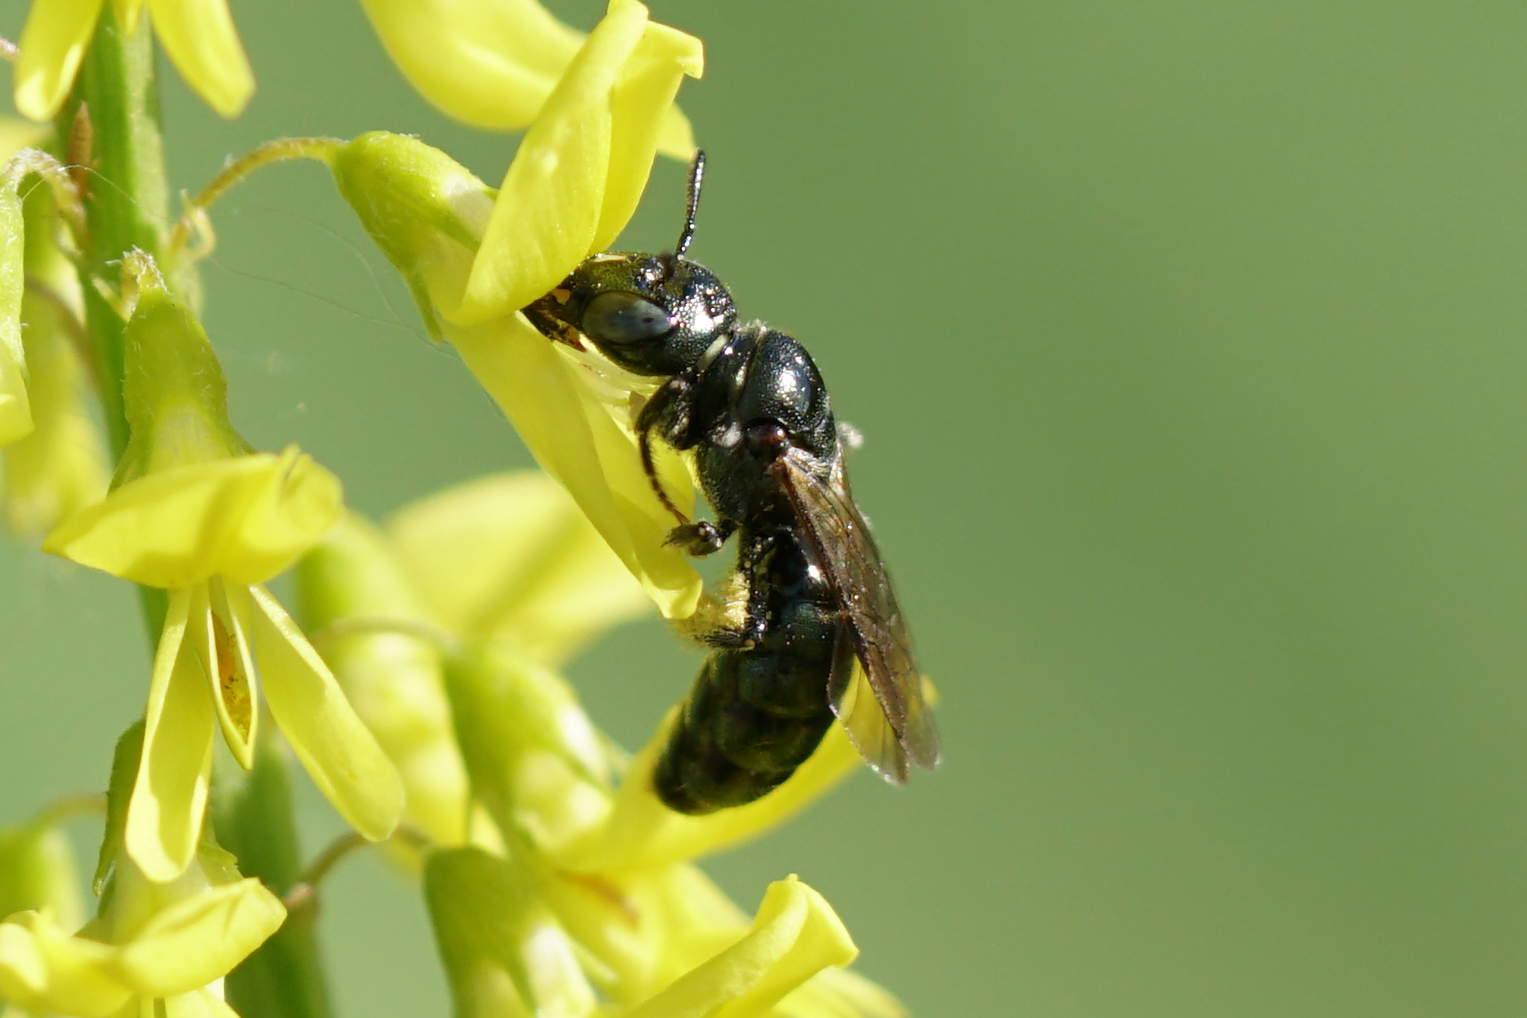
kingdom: Animalia
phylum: Arthropoda
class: Insecta
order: Hymenoptera
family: Apidae
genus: Zadontomerus
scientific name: Zadontomerus
